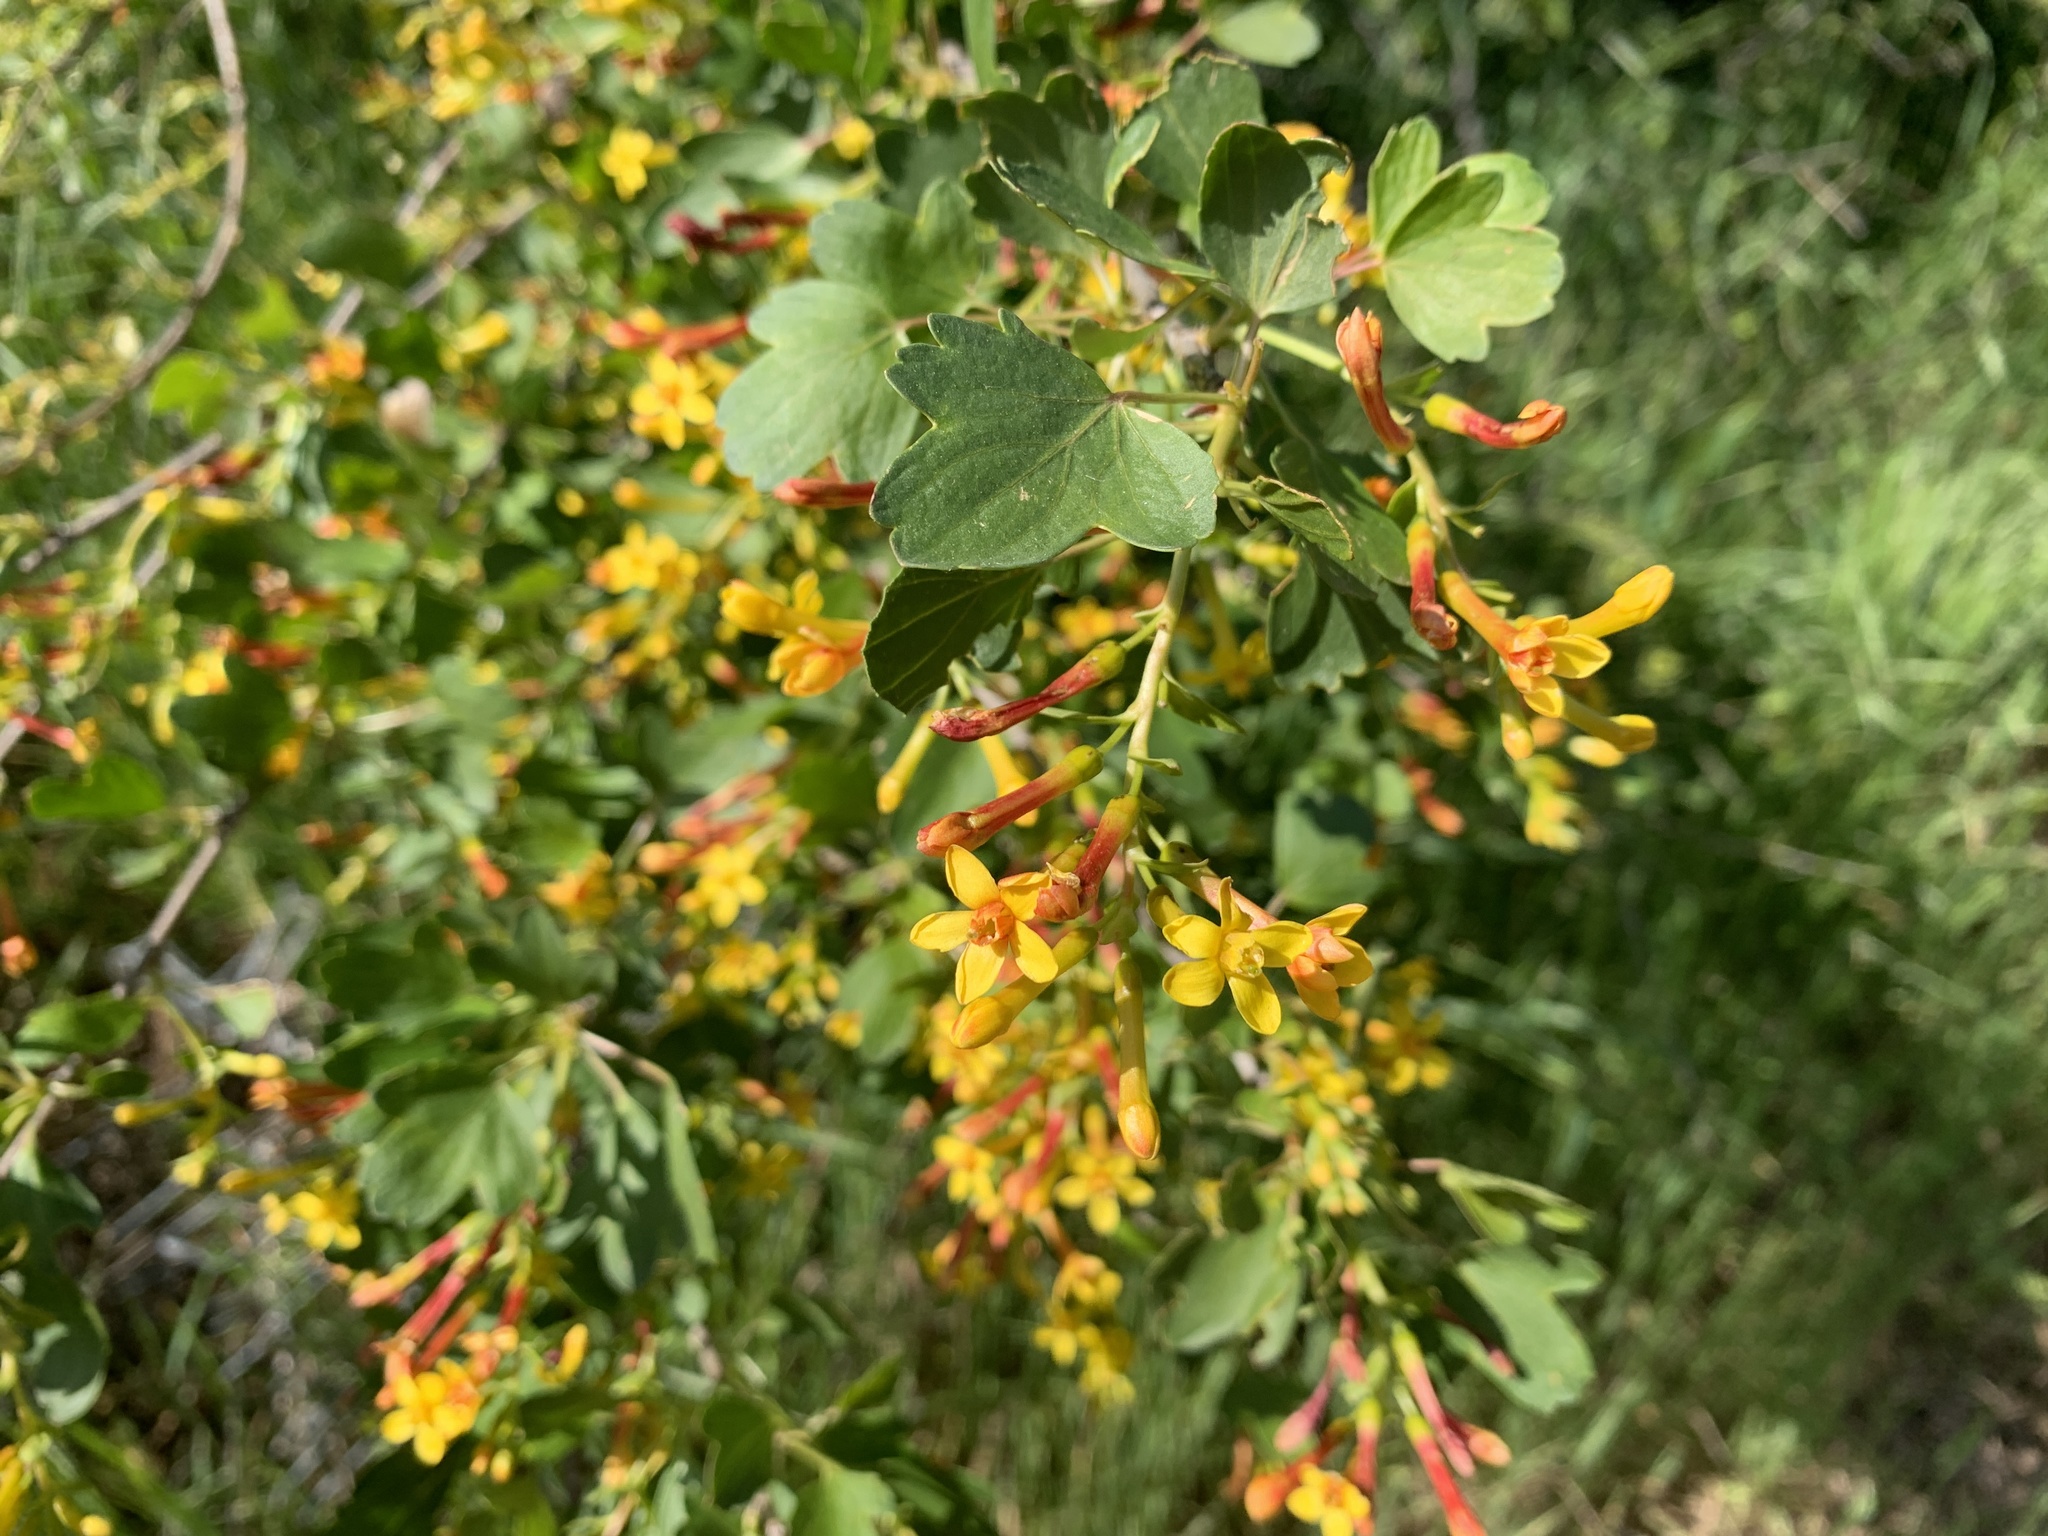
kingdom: Plantae
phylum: Tracheophyta
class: Magnoliopsida
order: Saxifragales
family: Grossulariaceae
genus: Ribes
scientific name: Ribes aureum
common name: Golden currant
